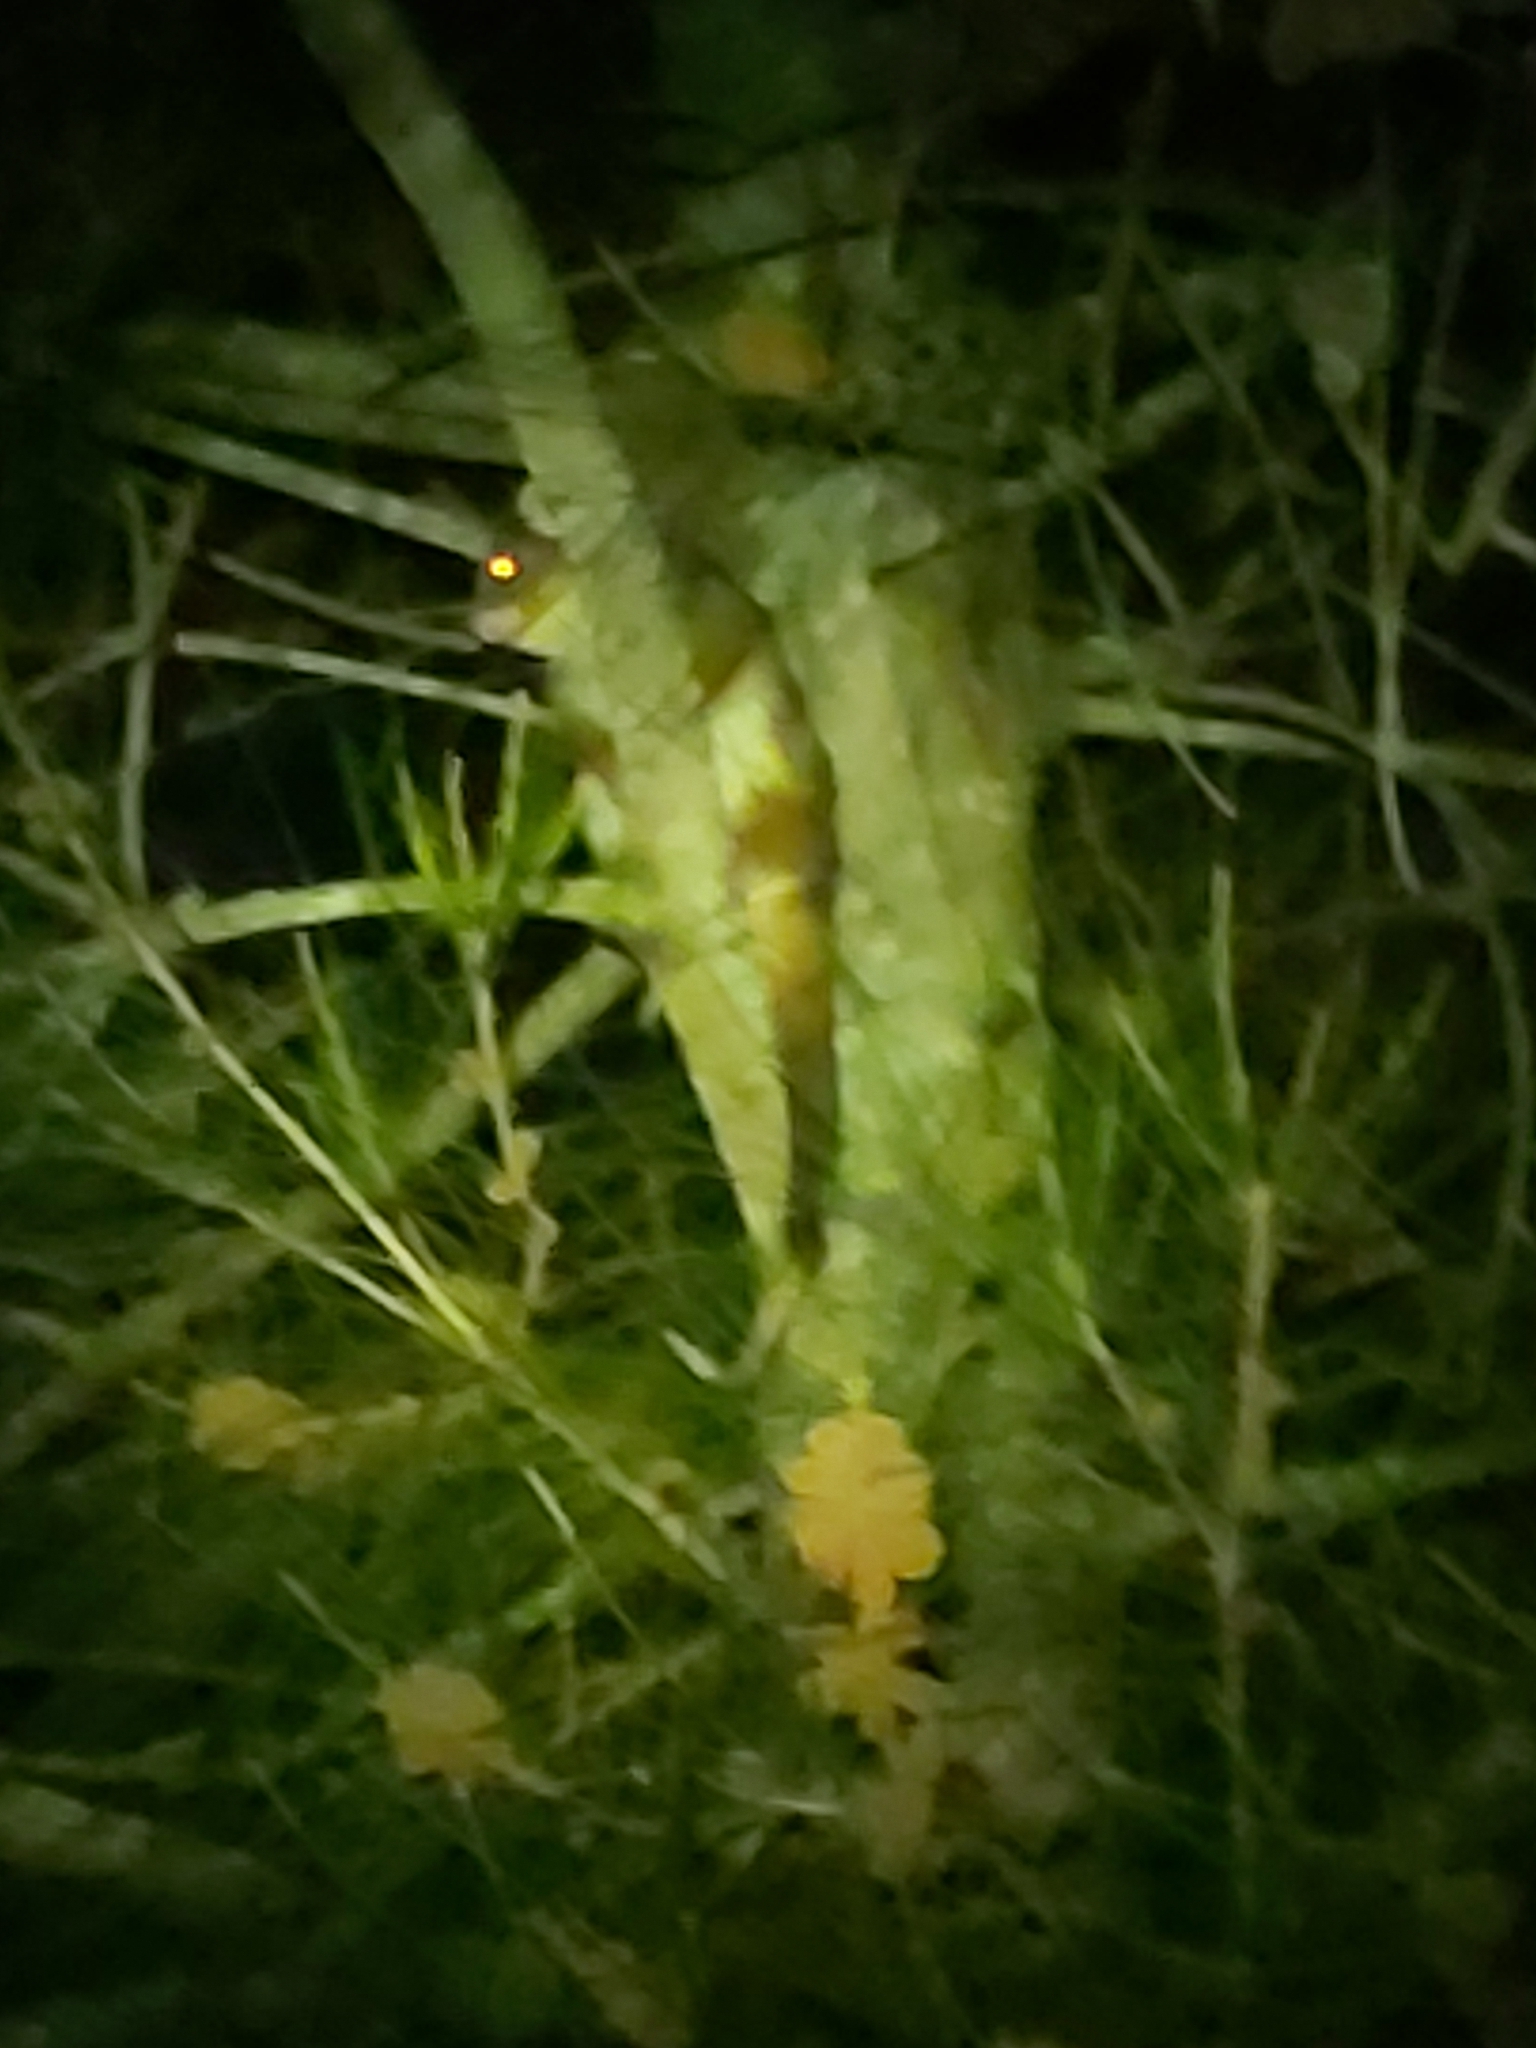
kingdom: Animalia
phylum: Chordata
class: Mammalia
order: Diprotodontia
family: Pseudocheiridae
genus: Pseudocheirus
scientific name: Pseudocheirus peregrinus
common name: Common ringtail possum
